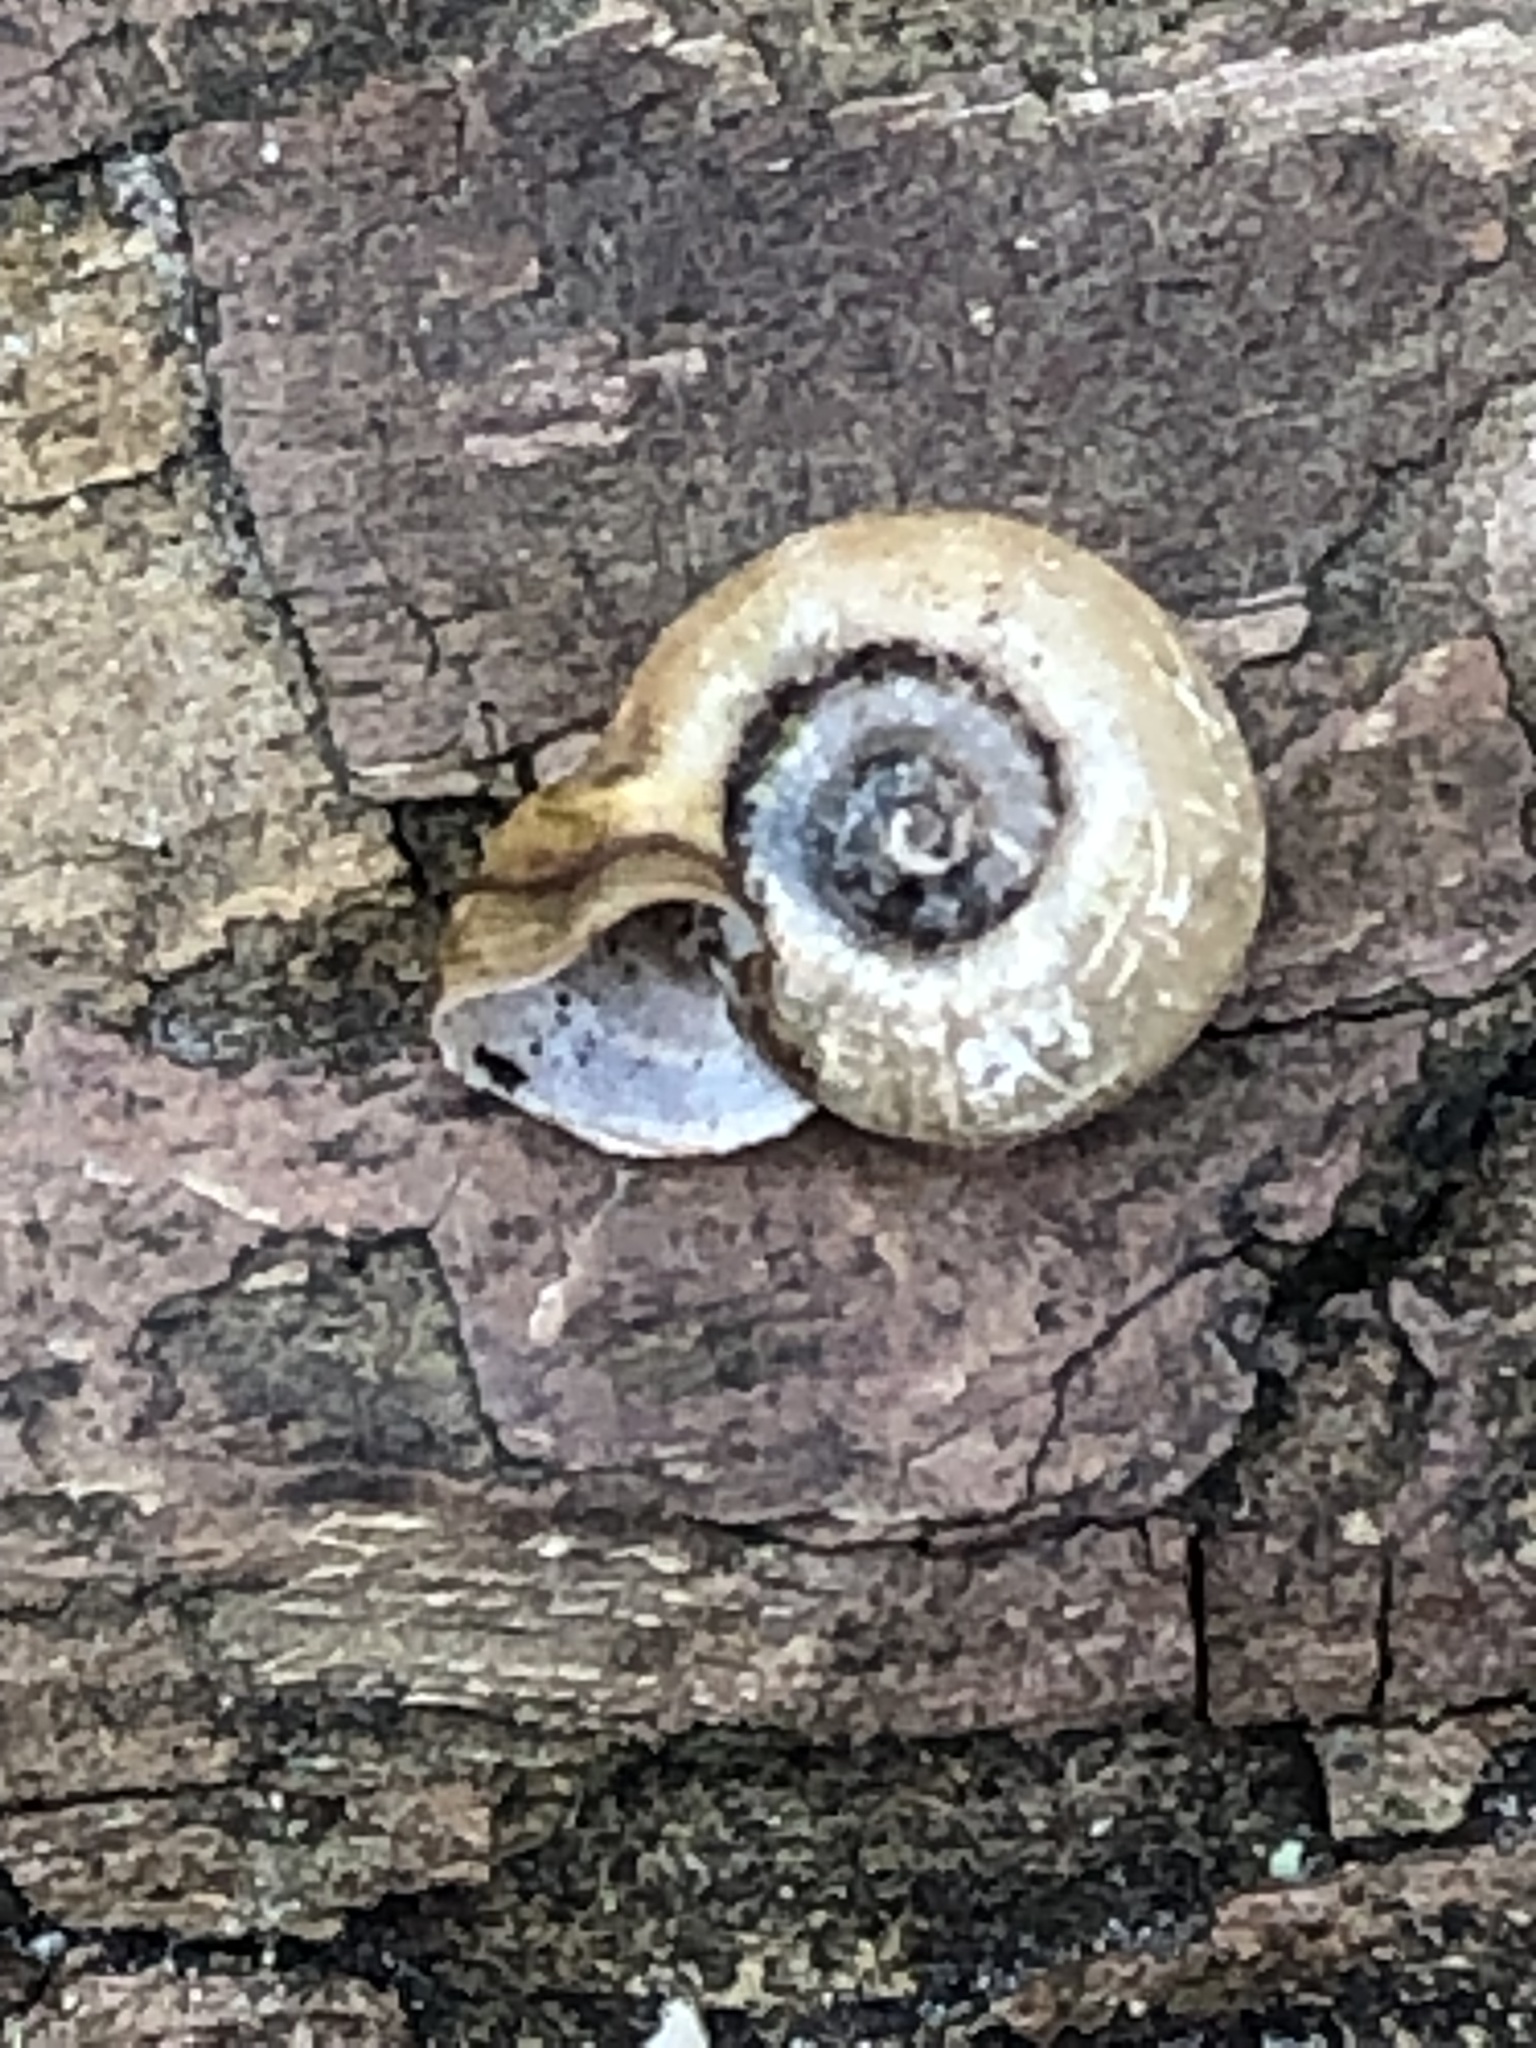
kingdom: Animalia
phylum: Mollusca
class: Gastropoda
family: Planorbidae
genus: Planorbella
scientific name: Planorbella campanulata
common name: Bellmouth ramshorn
